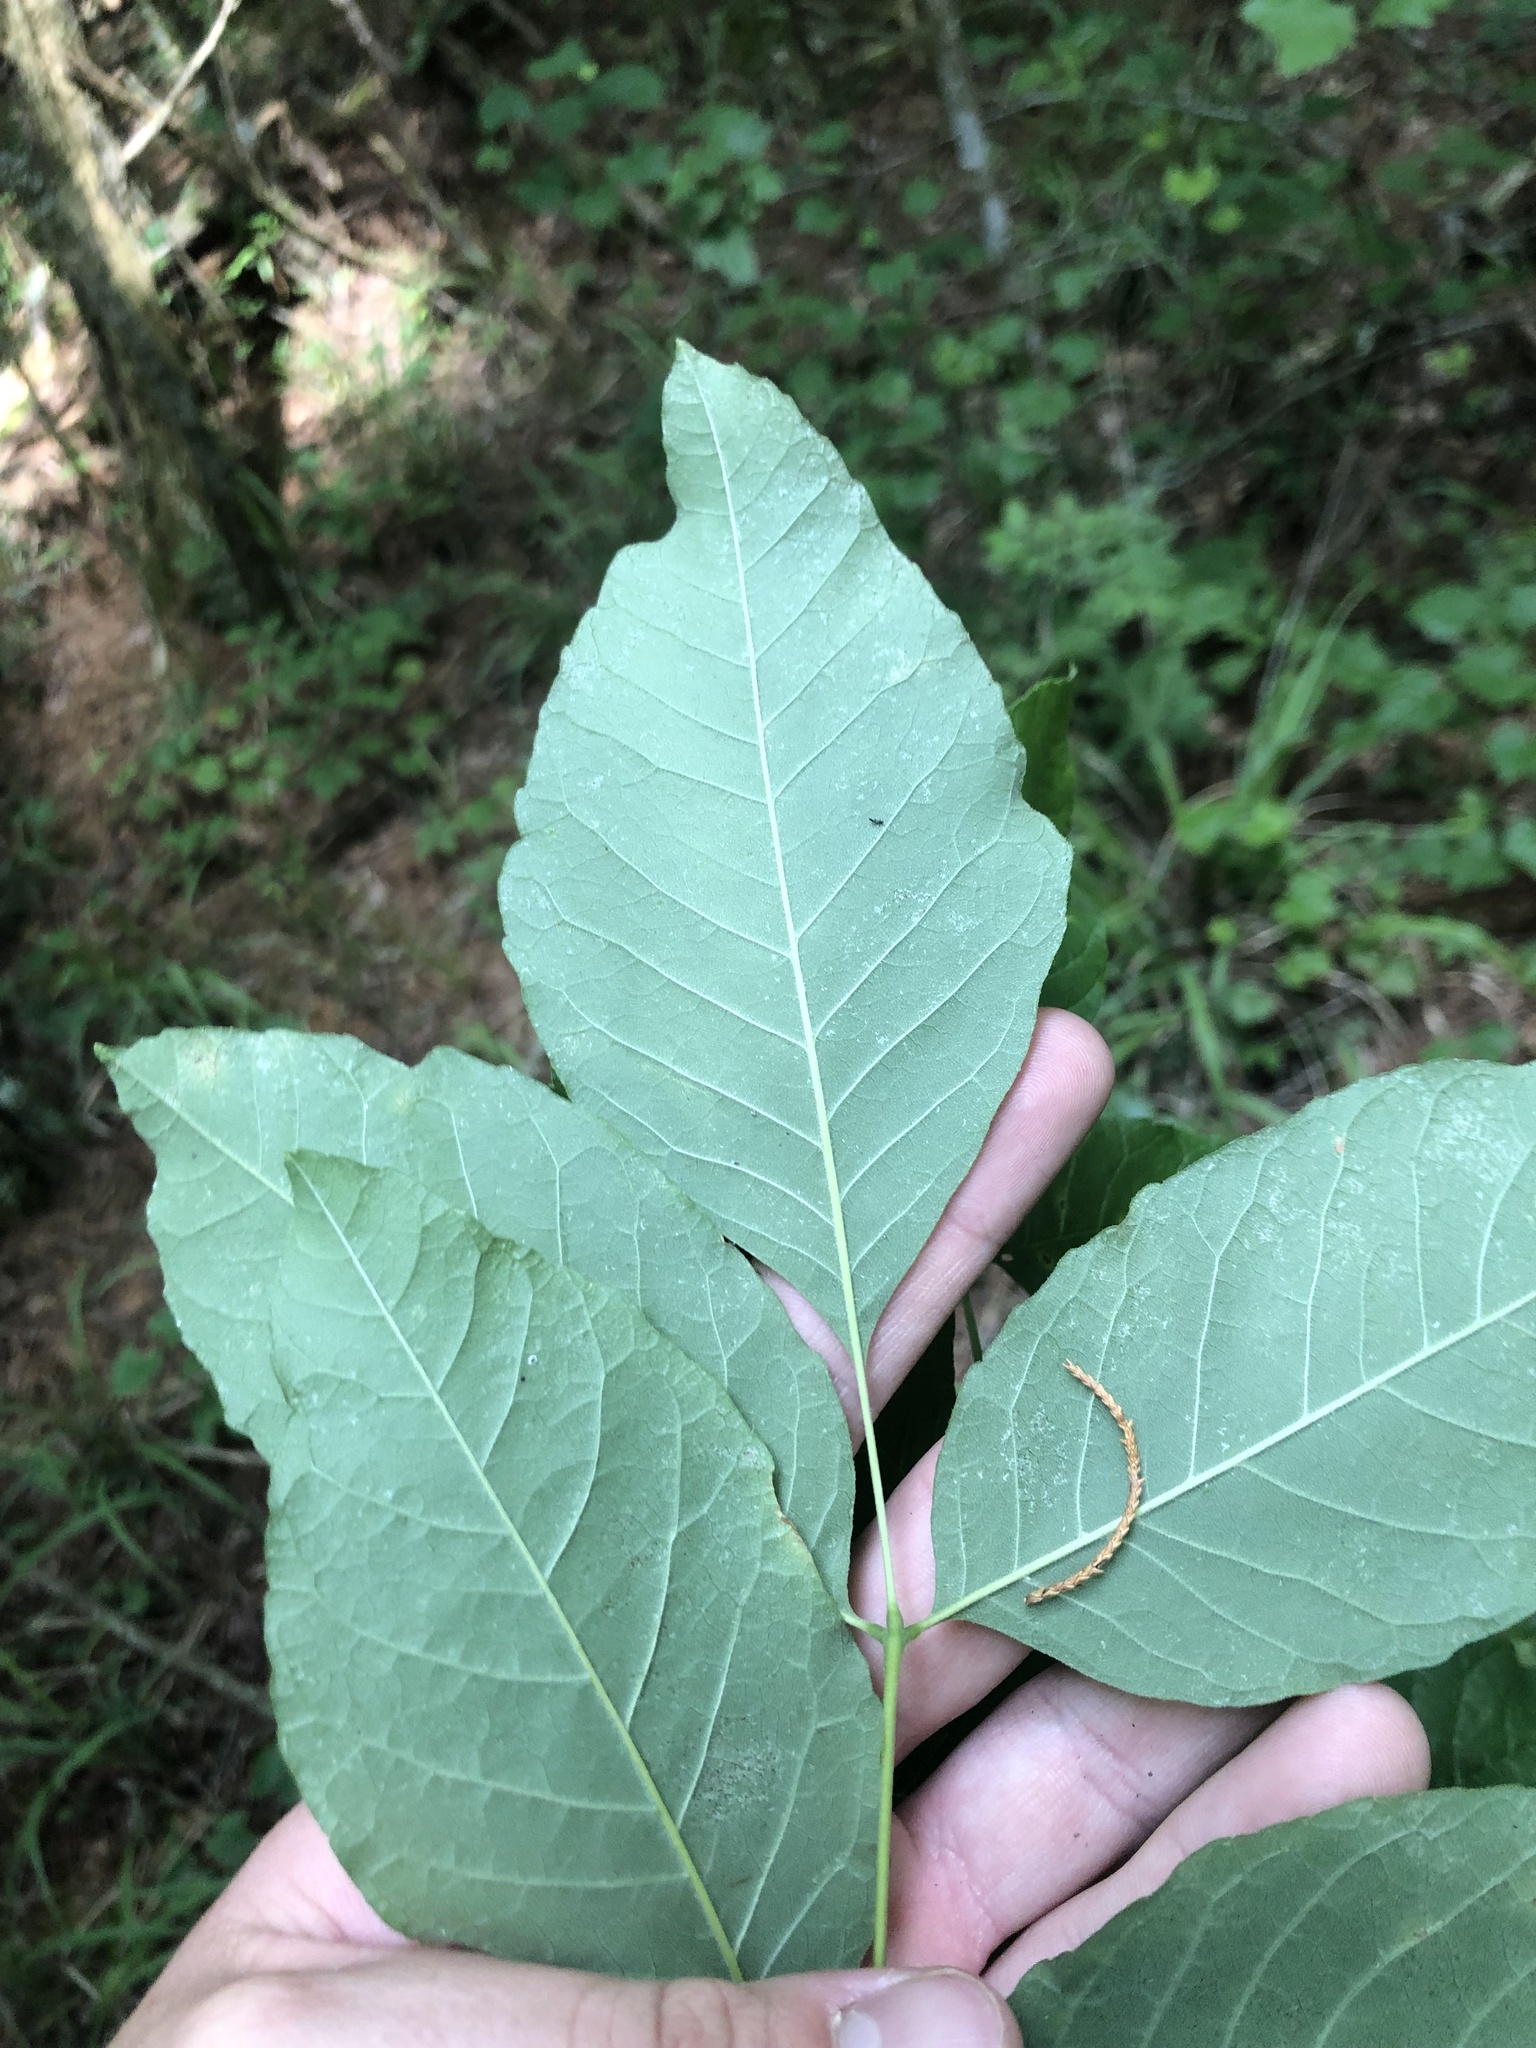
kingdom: Plantae
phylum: Tracheophyta
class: Magnoliopsida
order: Lamiales
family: Oleaceae
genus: Fraxinus
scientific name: Fraxinus americana
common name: White ash
